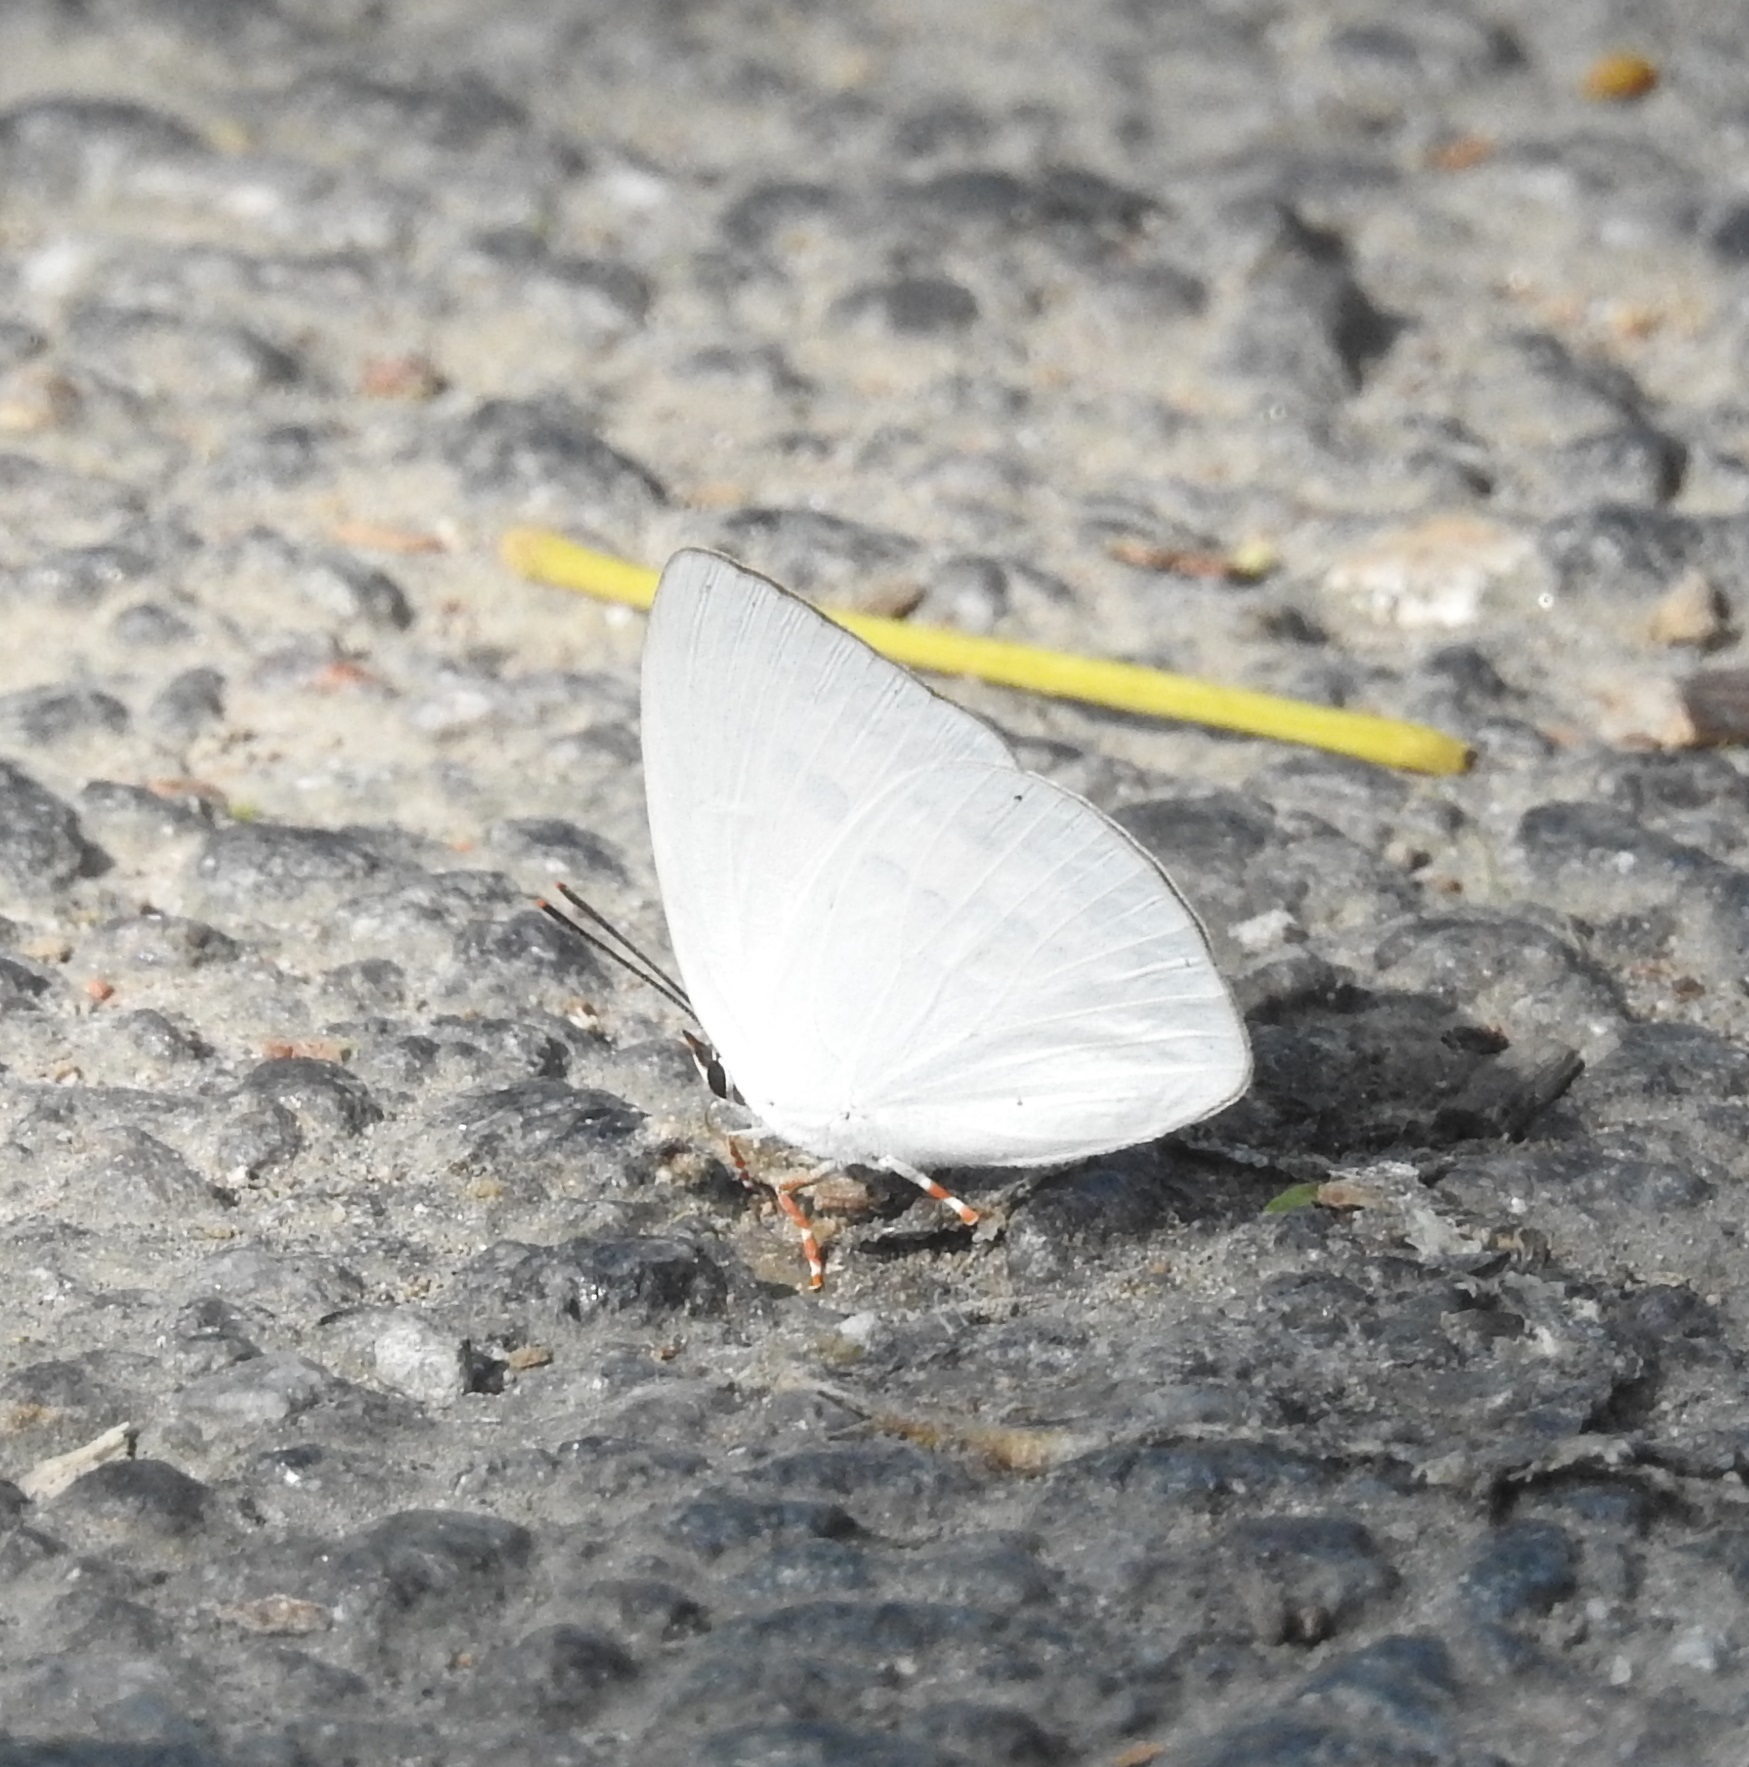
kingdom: Animalia
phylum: Arthropoda
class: Insecta
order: Lepidoptera
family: Lycaenidae
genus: Curetis
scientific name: Curetis thetis
